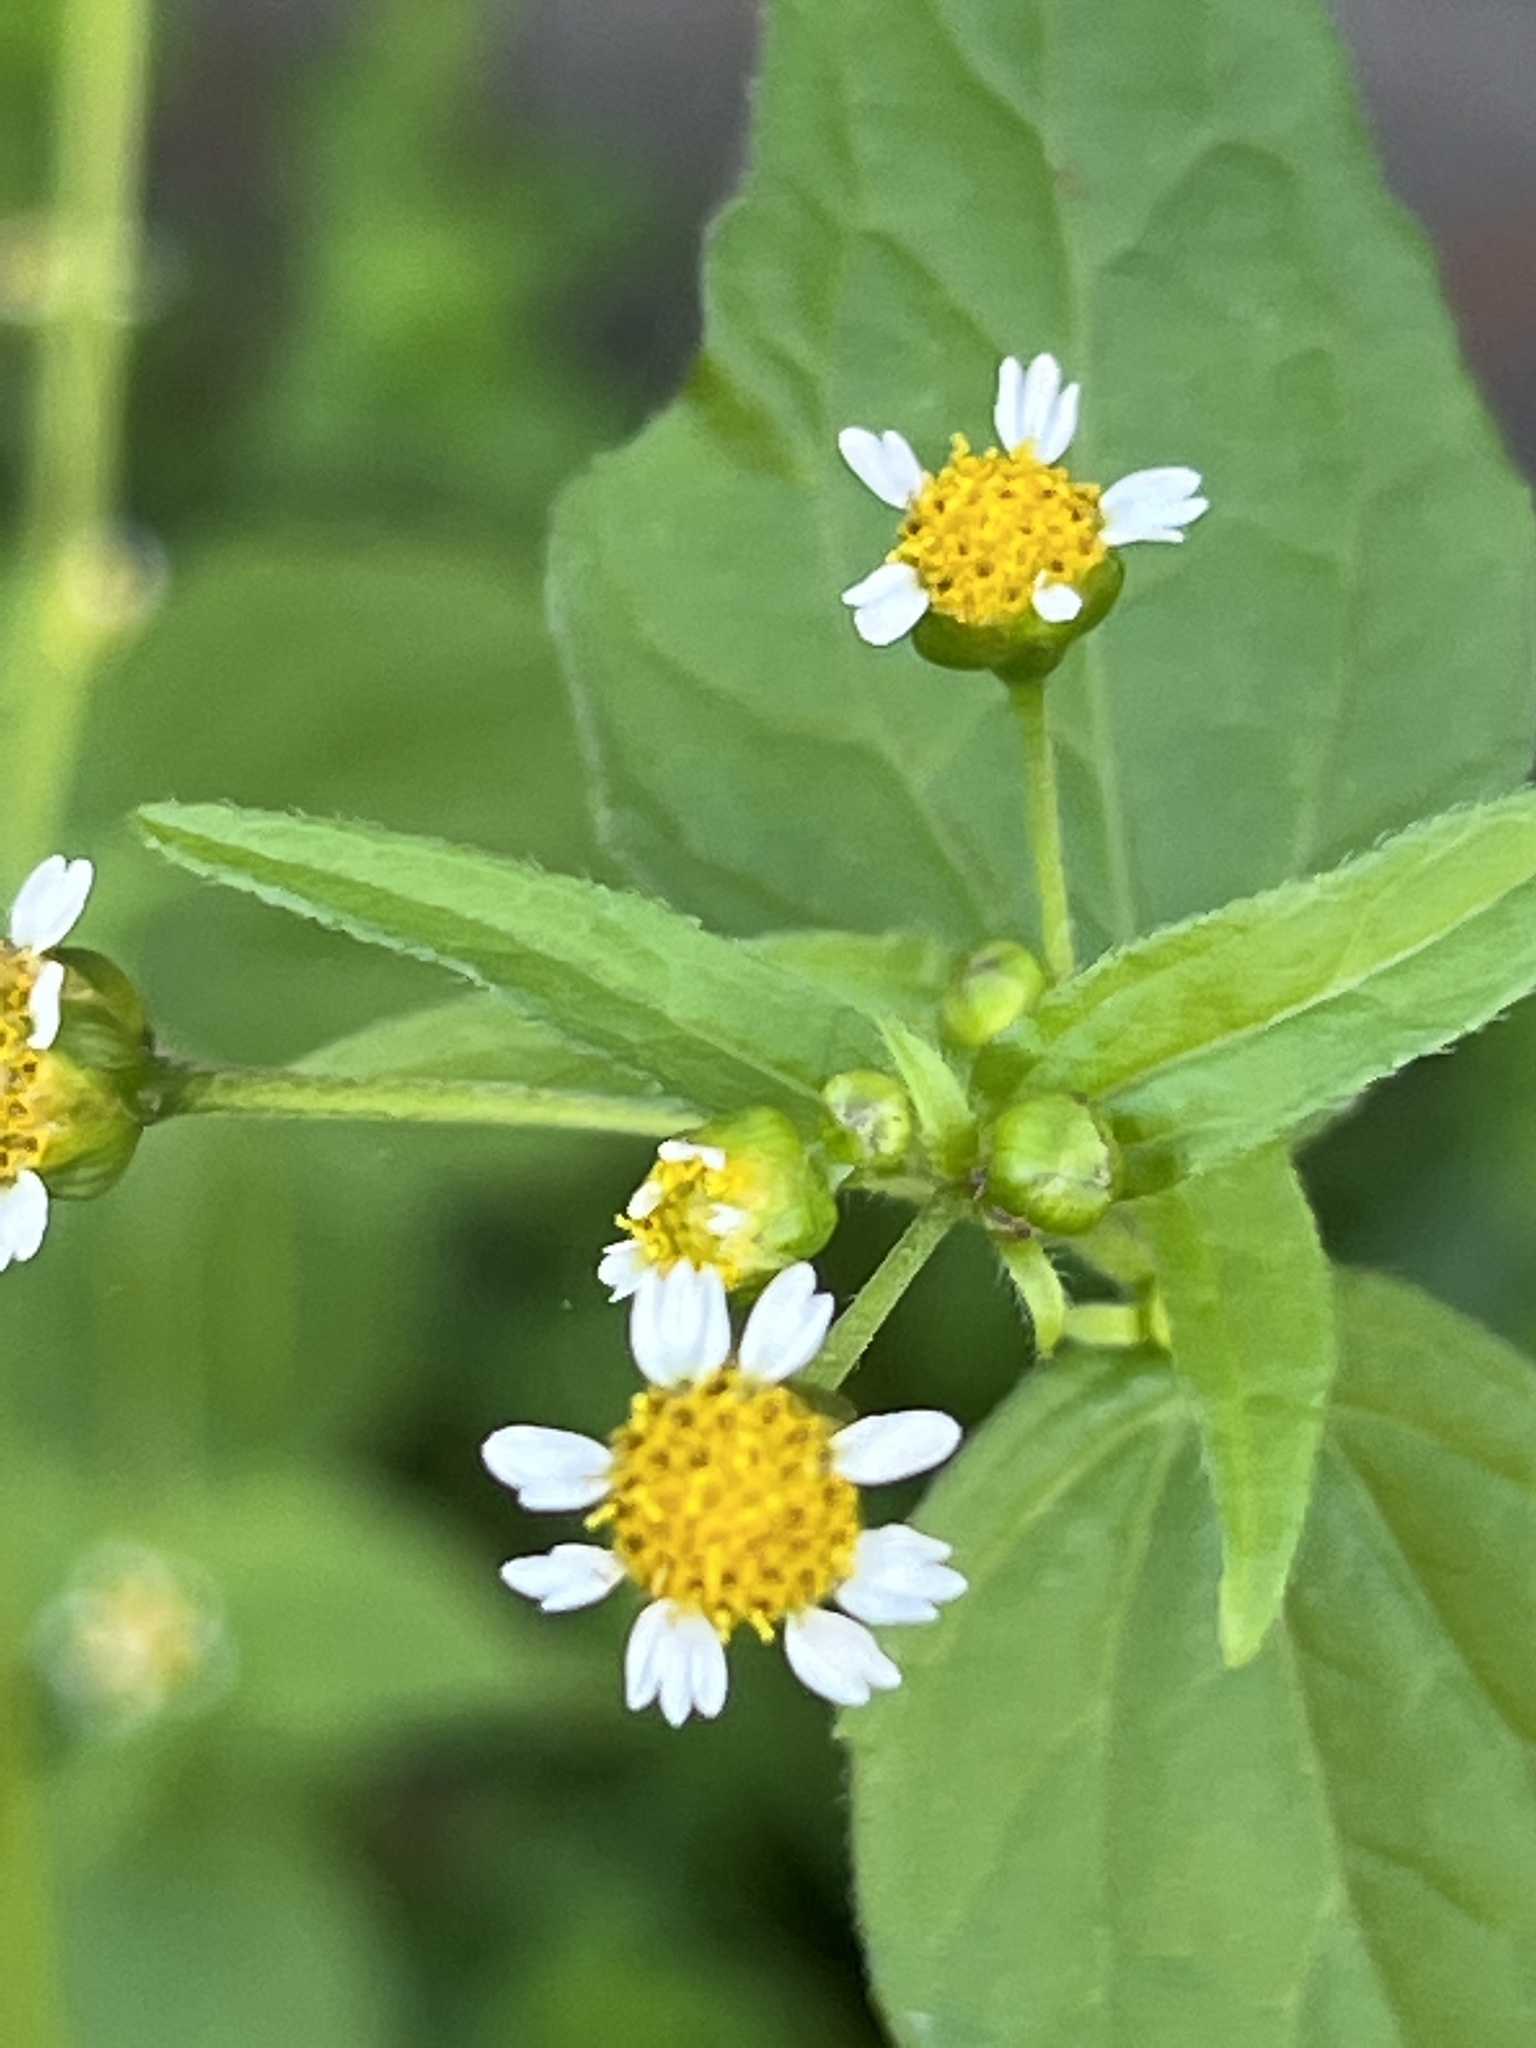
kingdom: Plantae
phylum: Tracheophyta
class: Magnoliopsida
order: Asterales
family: Asteraceae
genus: Galinsoga
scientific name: Galinsoga parviflora
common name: Gallant soldier
